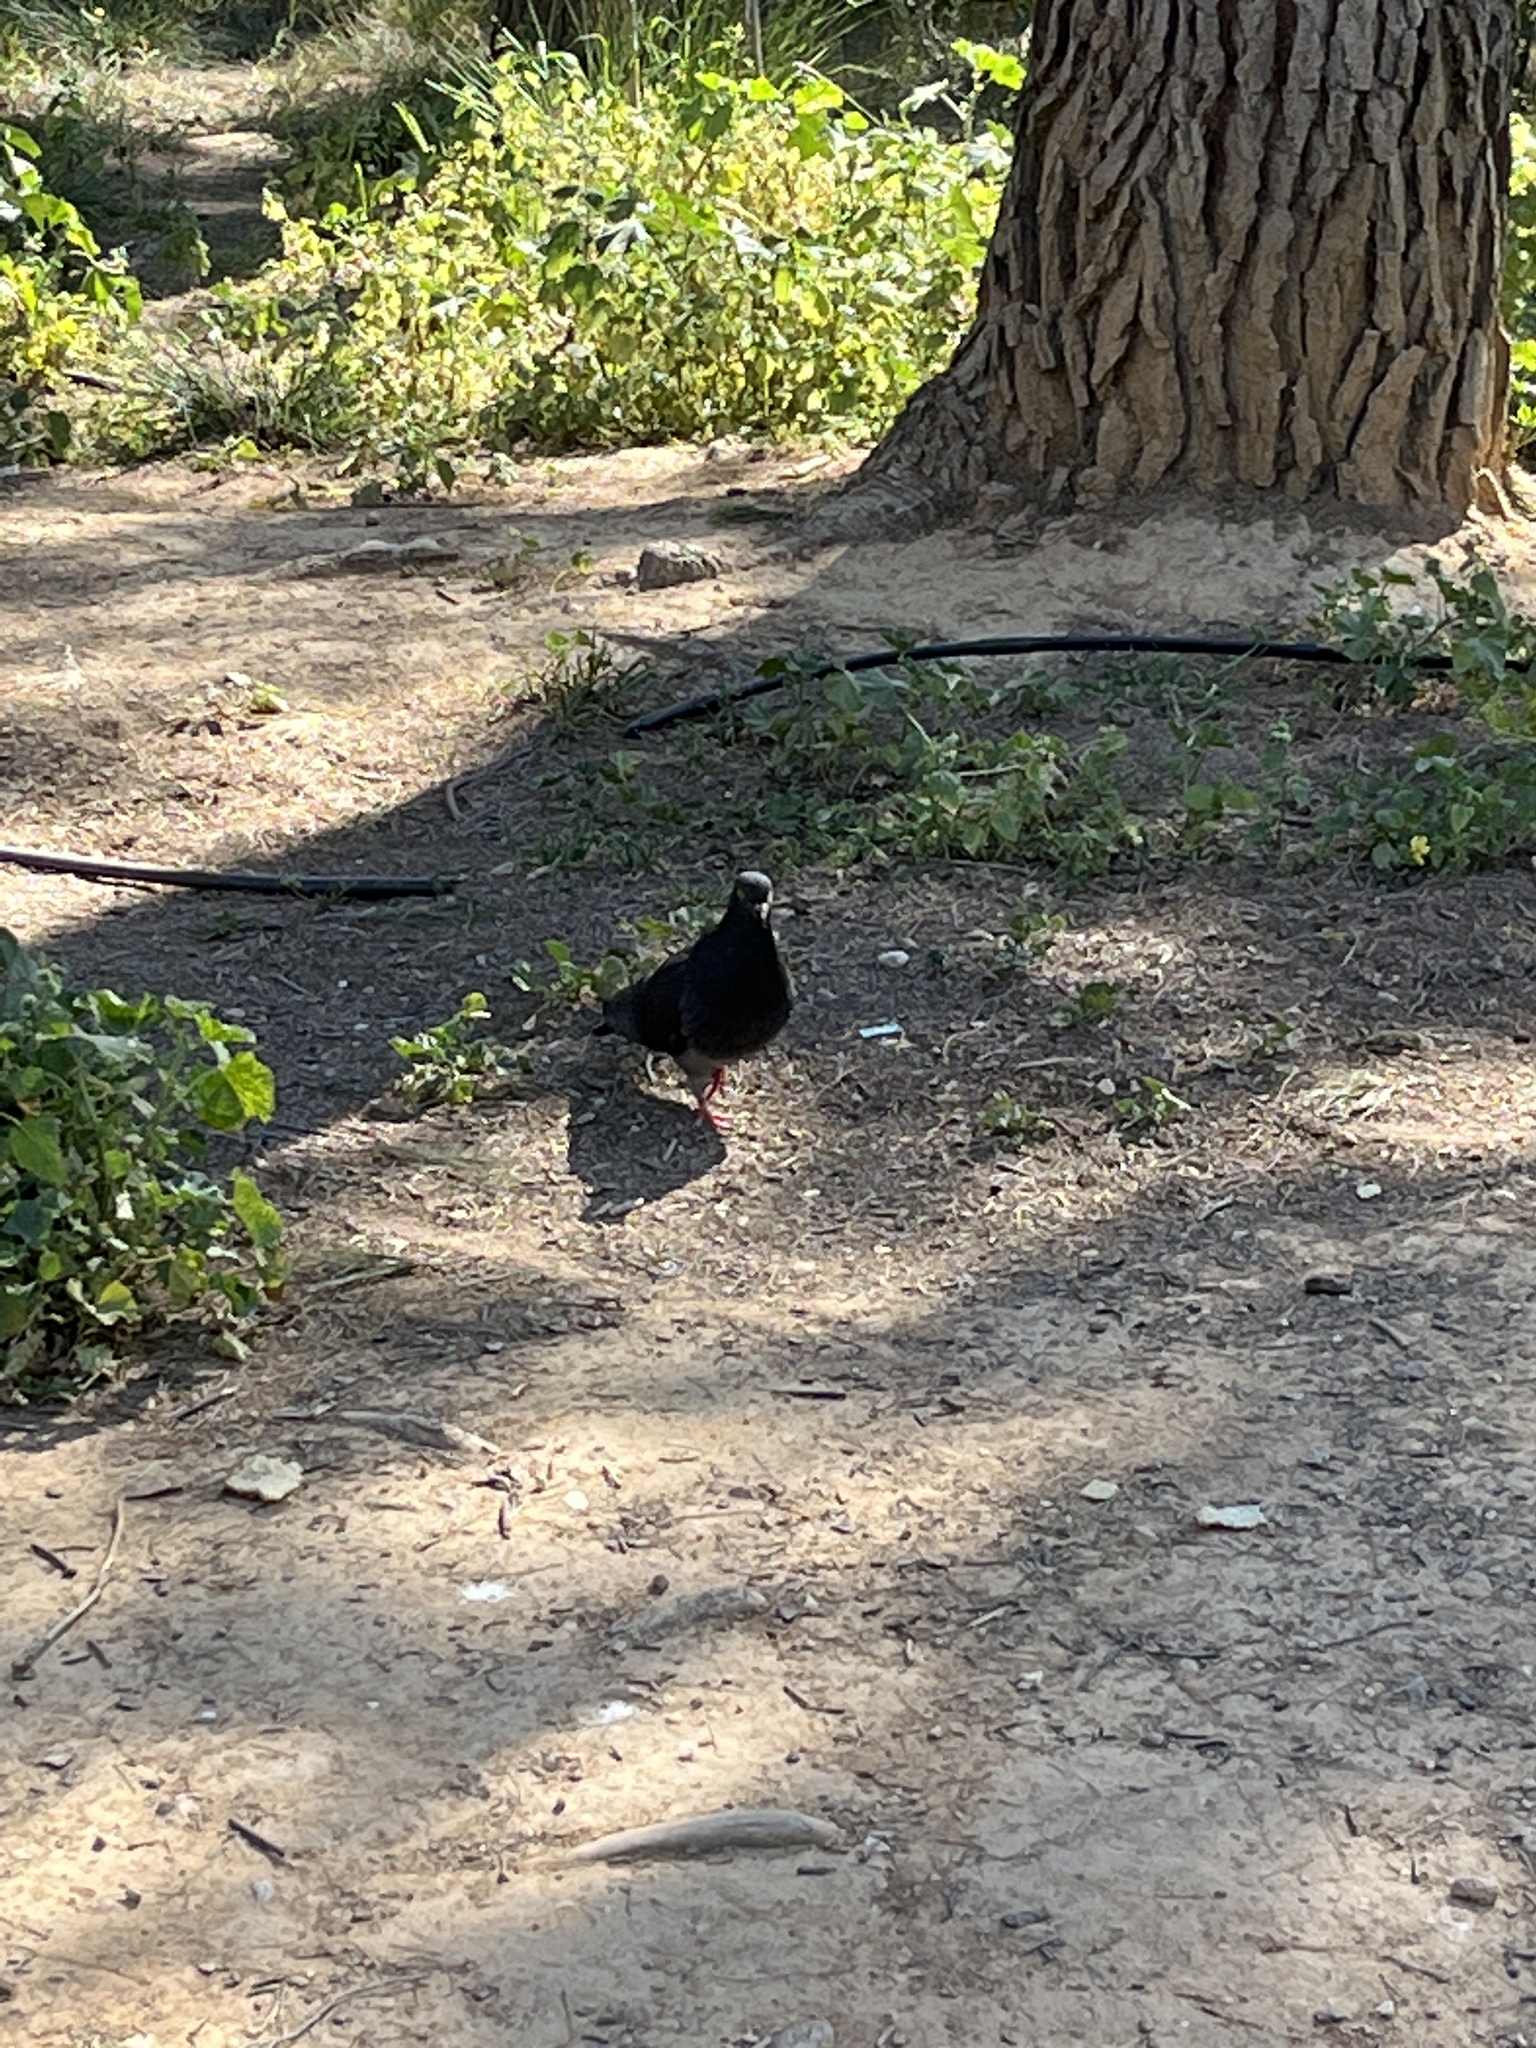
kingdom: Animalia
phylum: Chordata
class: Aves
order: Columbiformes
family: Columbidae
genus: Columba
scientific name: Columba livia
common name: Rock pigeon
